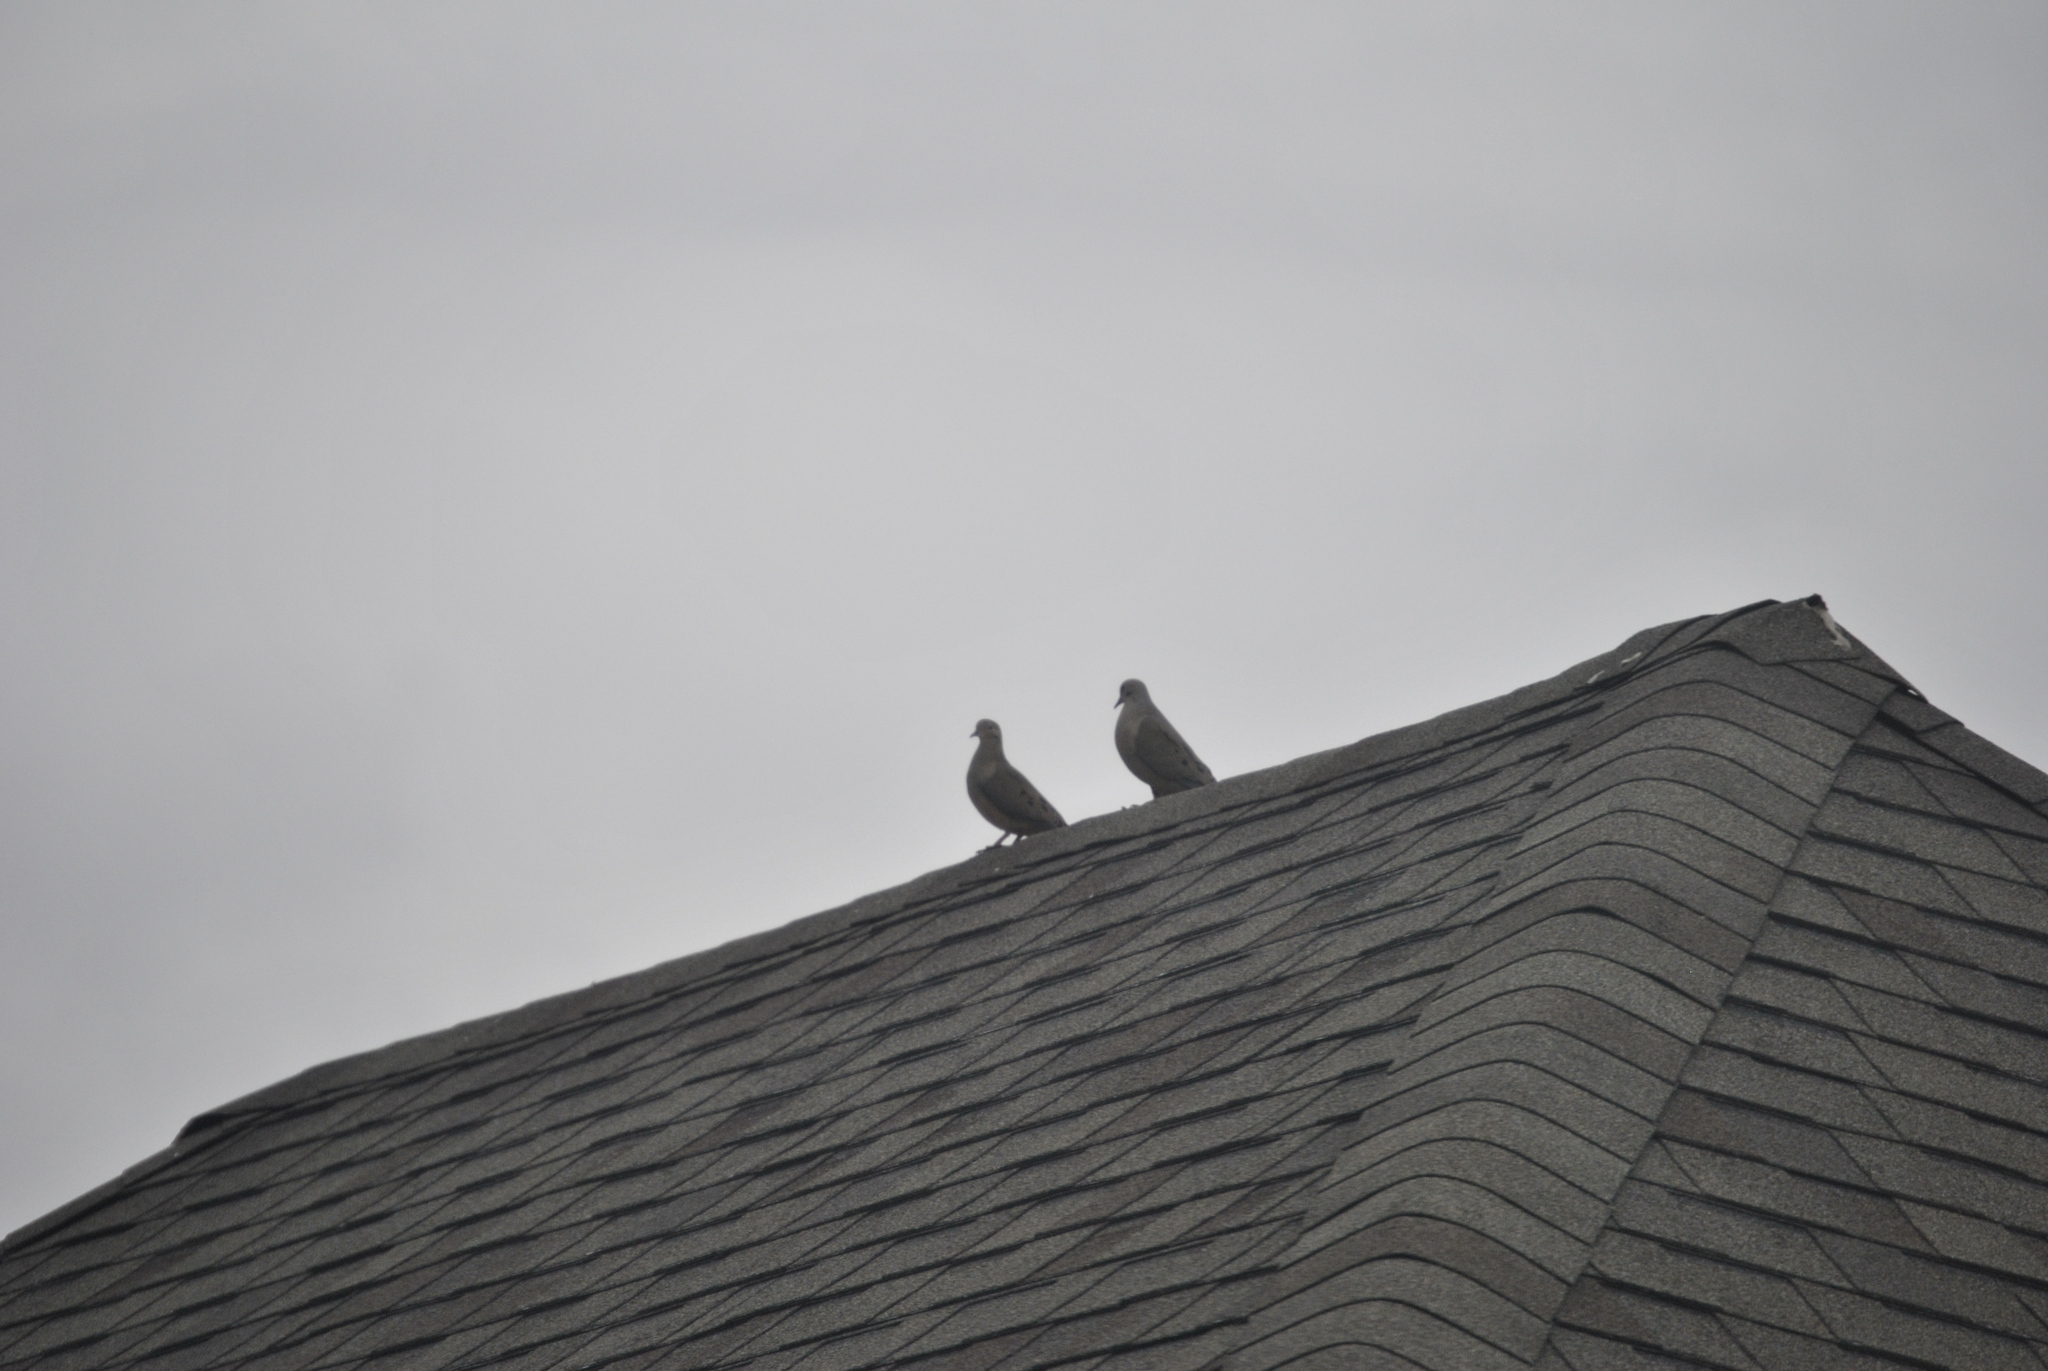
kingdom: Animalia
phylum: Chordata
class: Aves
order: Columbiformes
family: Columbidae
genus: Zenaida
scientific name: Zenaida macroura
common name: Mourning dove
